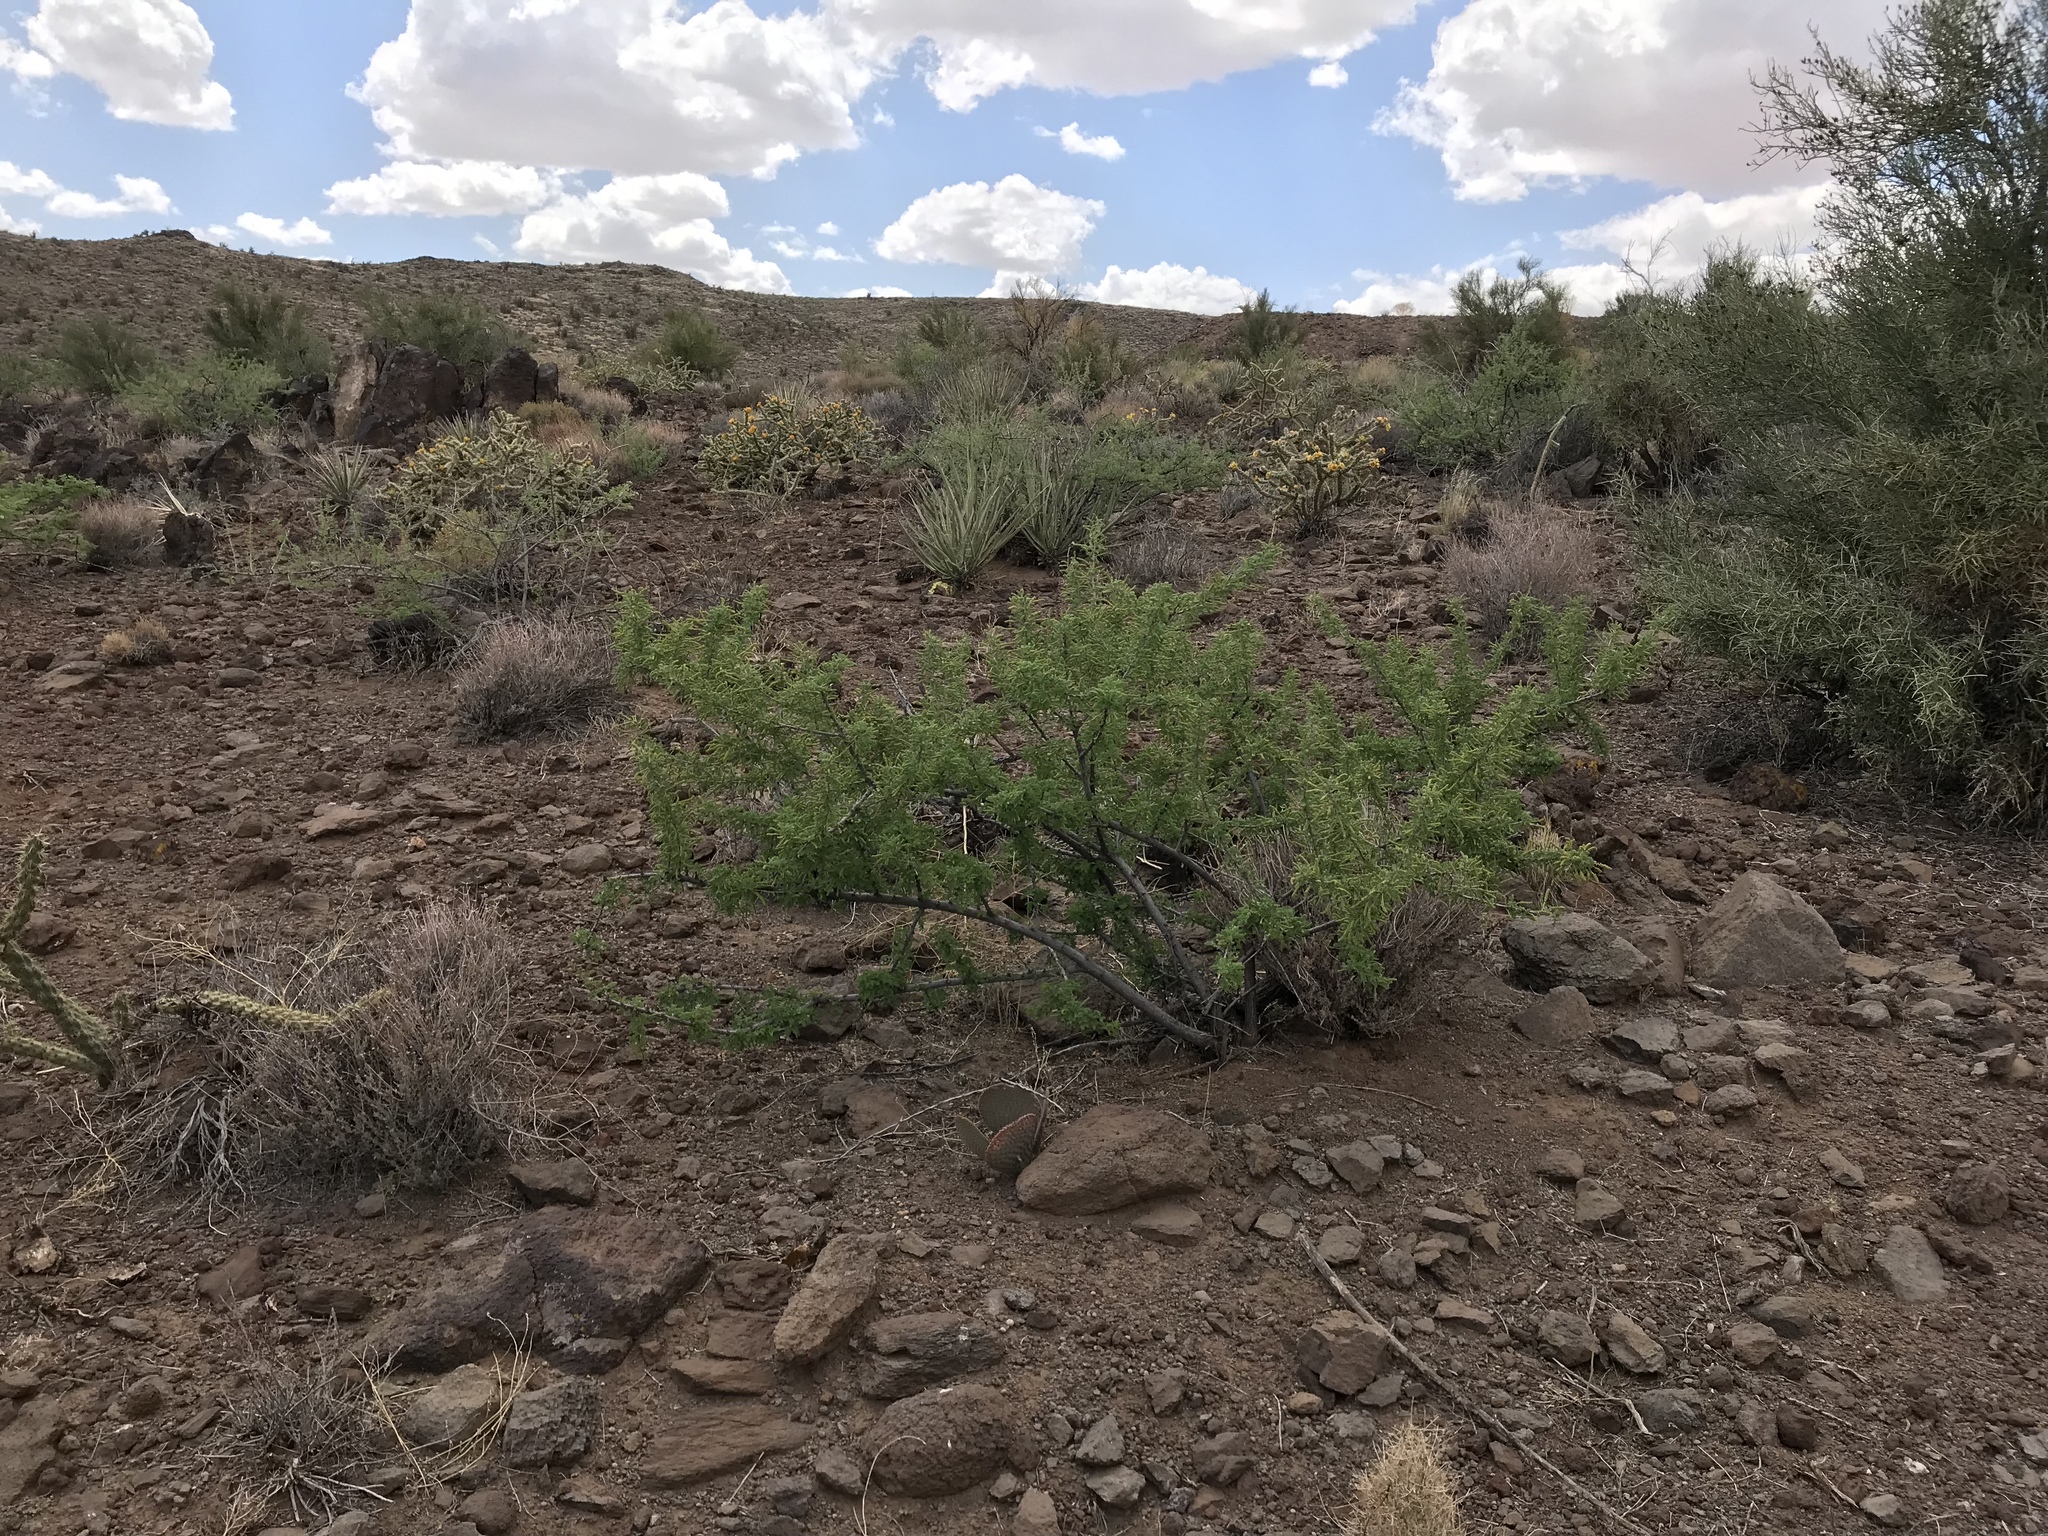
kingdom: Plantae
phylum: Tracheophyta
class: Magnoliopsida
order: Fabales
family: Fabaceae
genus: Senegalia
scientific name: Senegalia greggii
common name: Texas-mimosa
